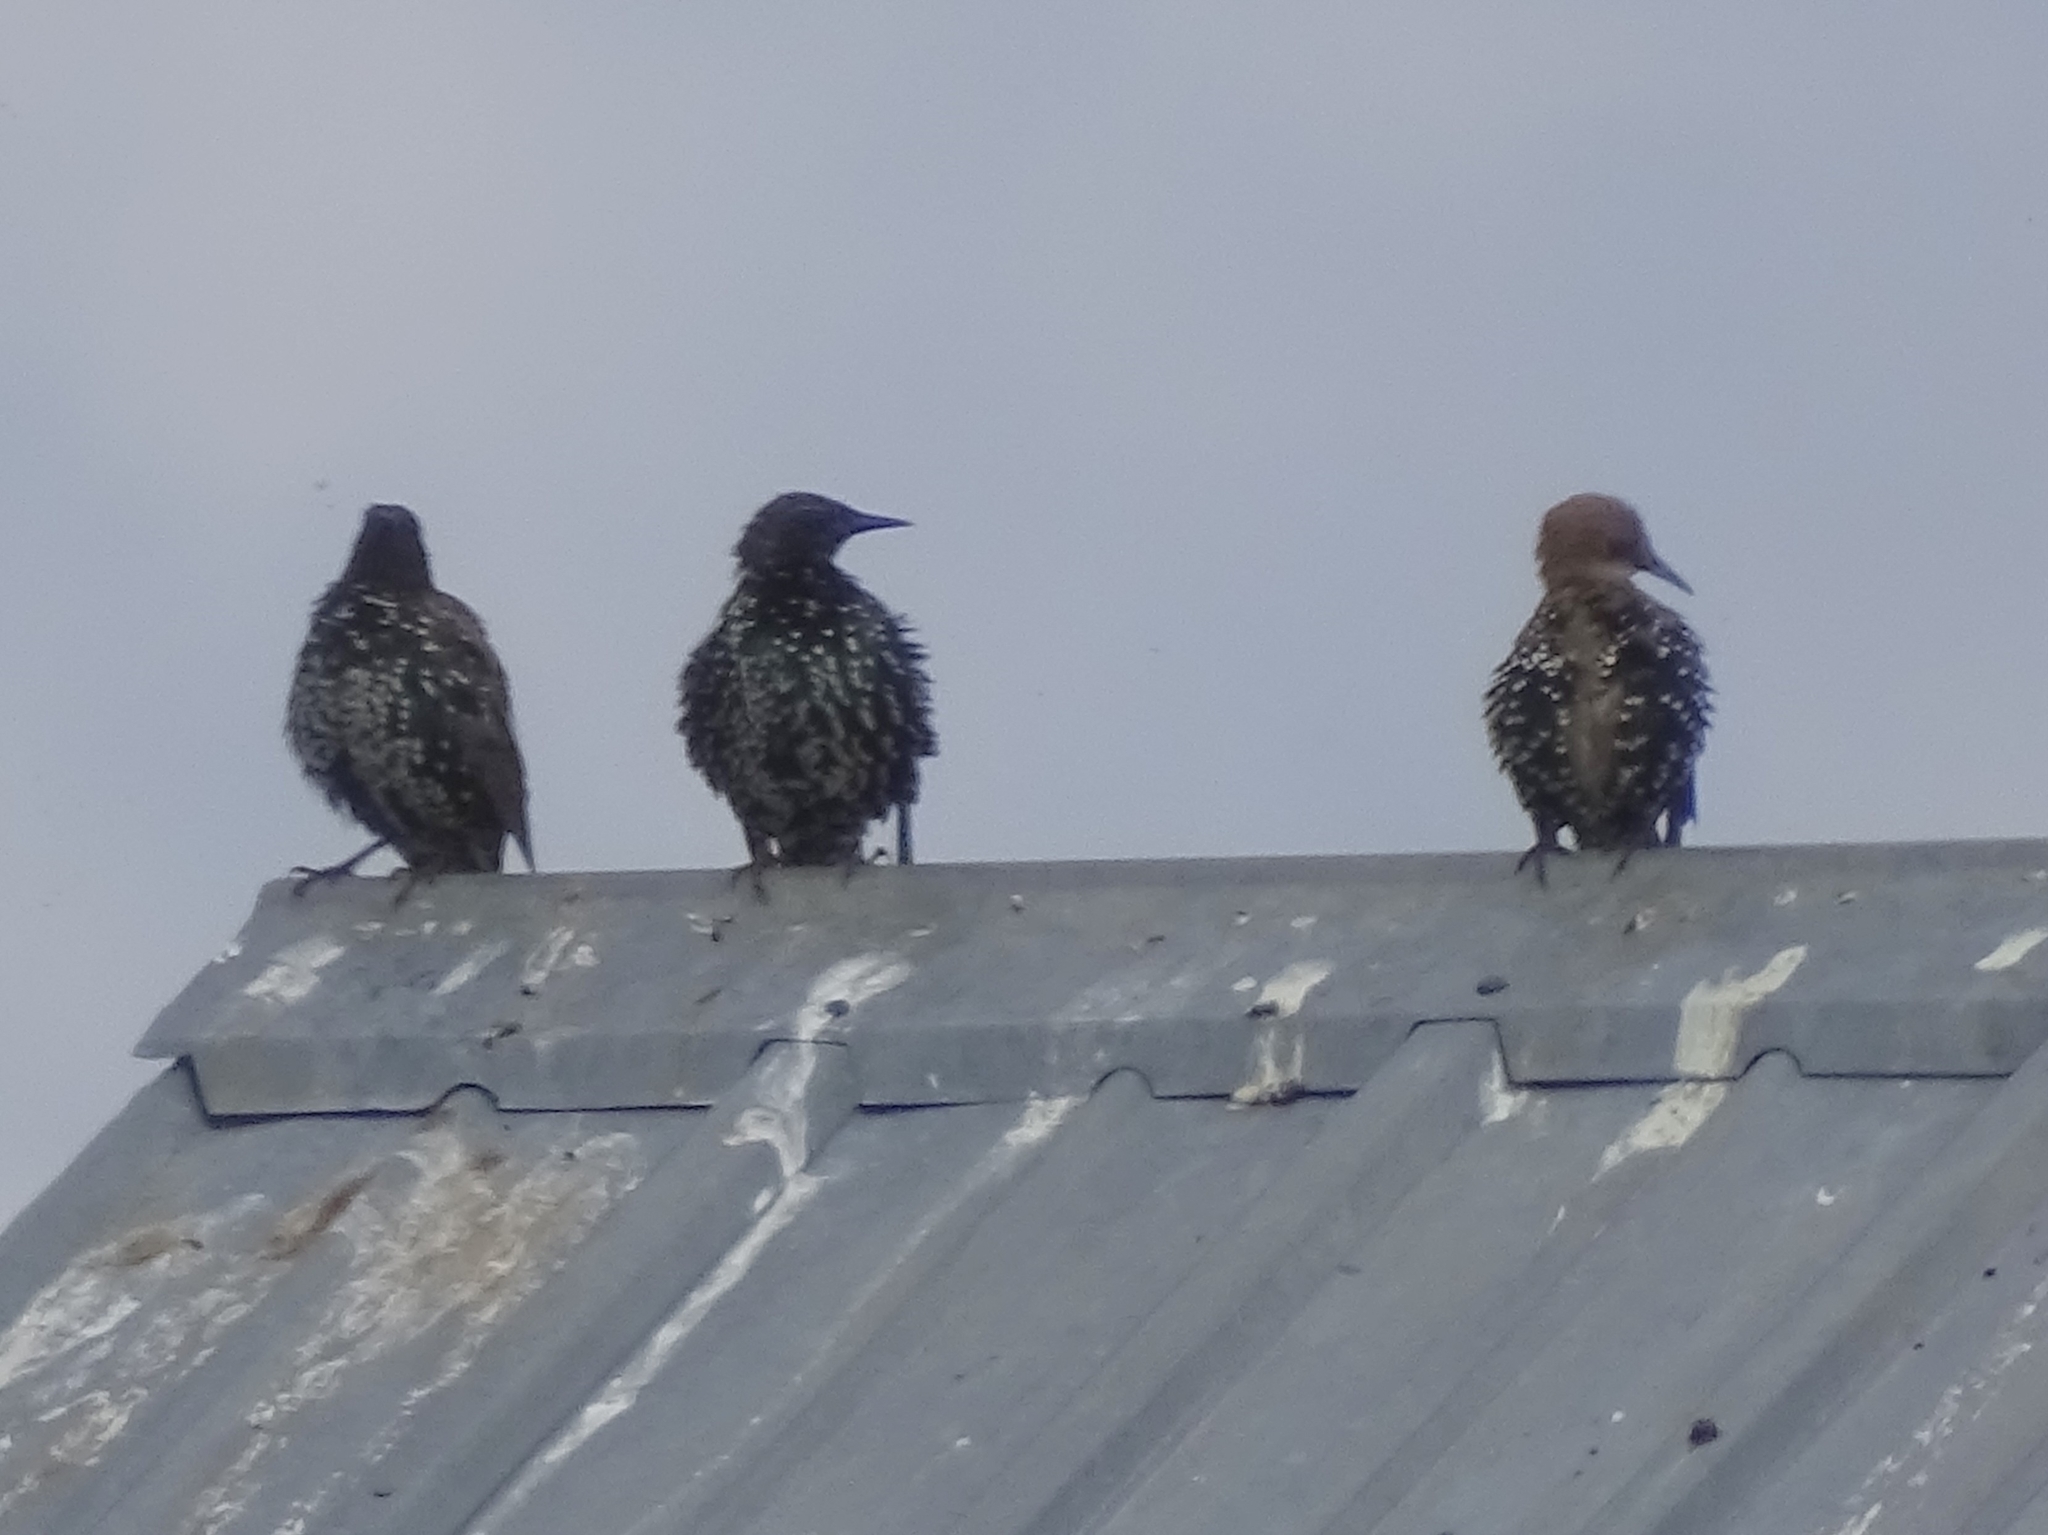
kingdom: Animalia
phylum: Chordata
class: Aves
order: Passeriformes
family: Sturnidae
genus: Sturnus
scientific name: Sturnus vulgaris
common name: Common starling
